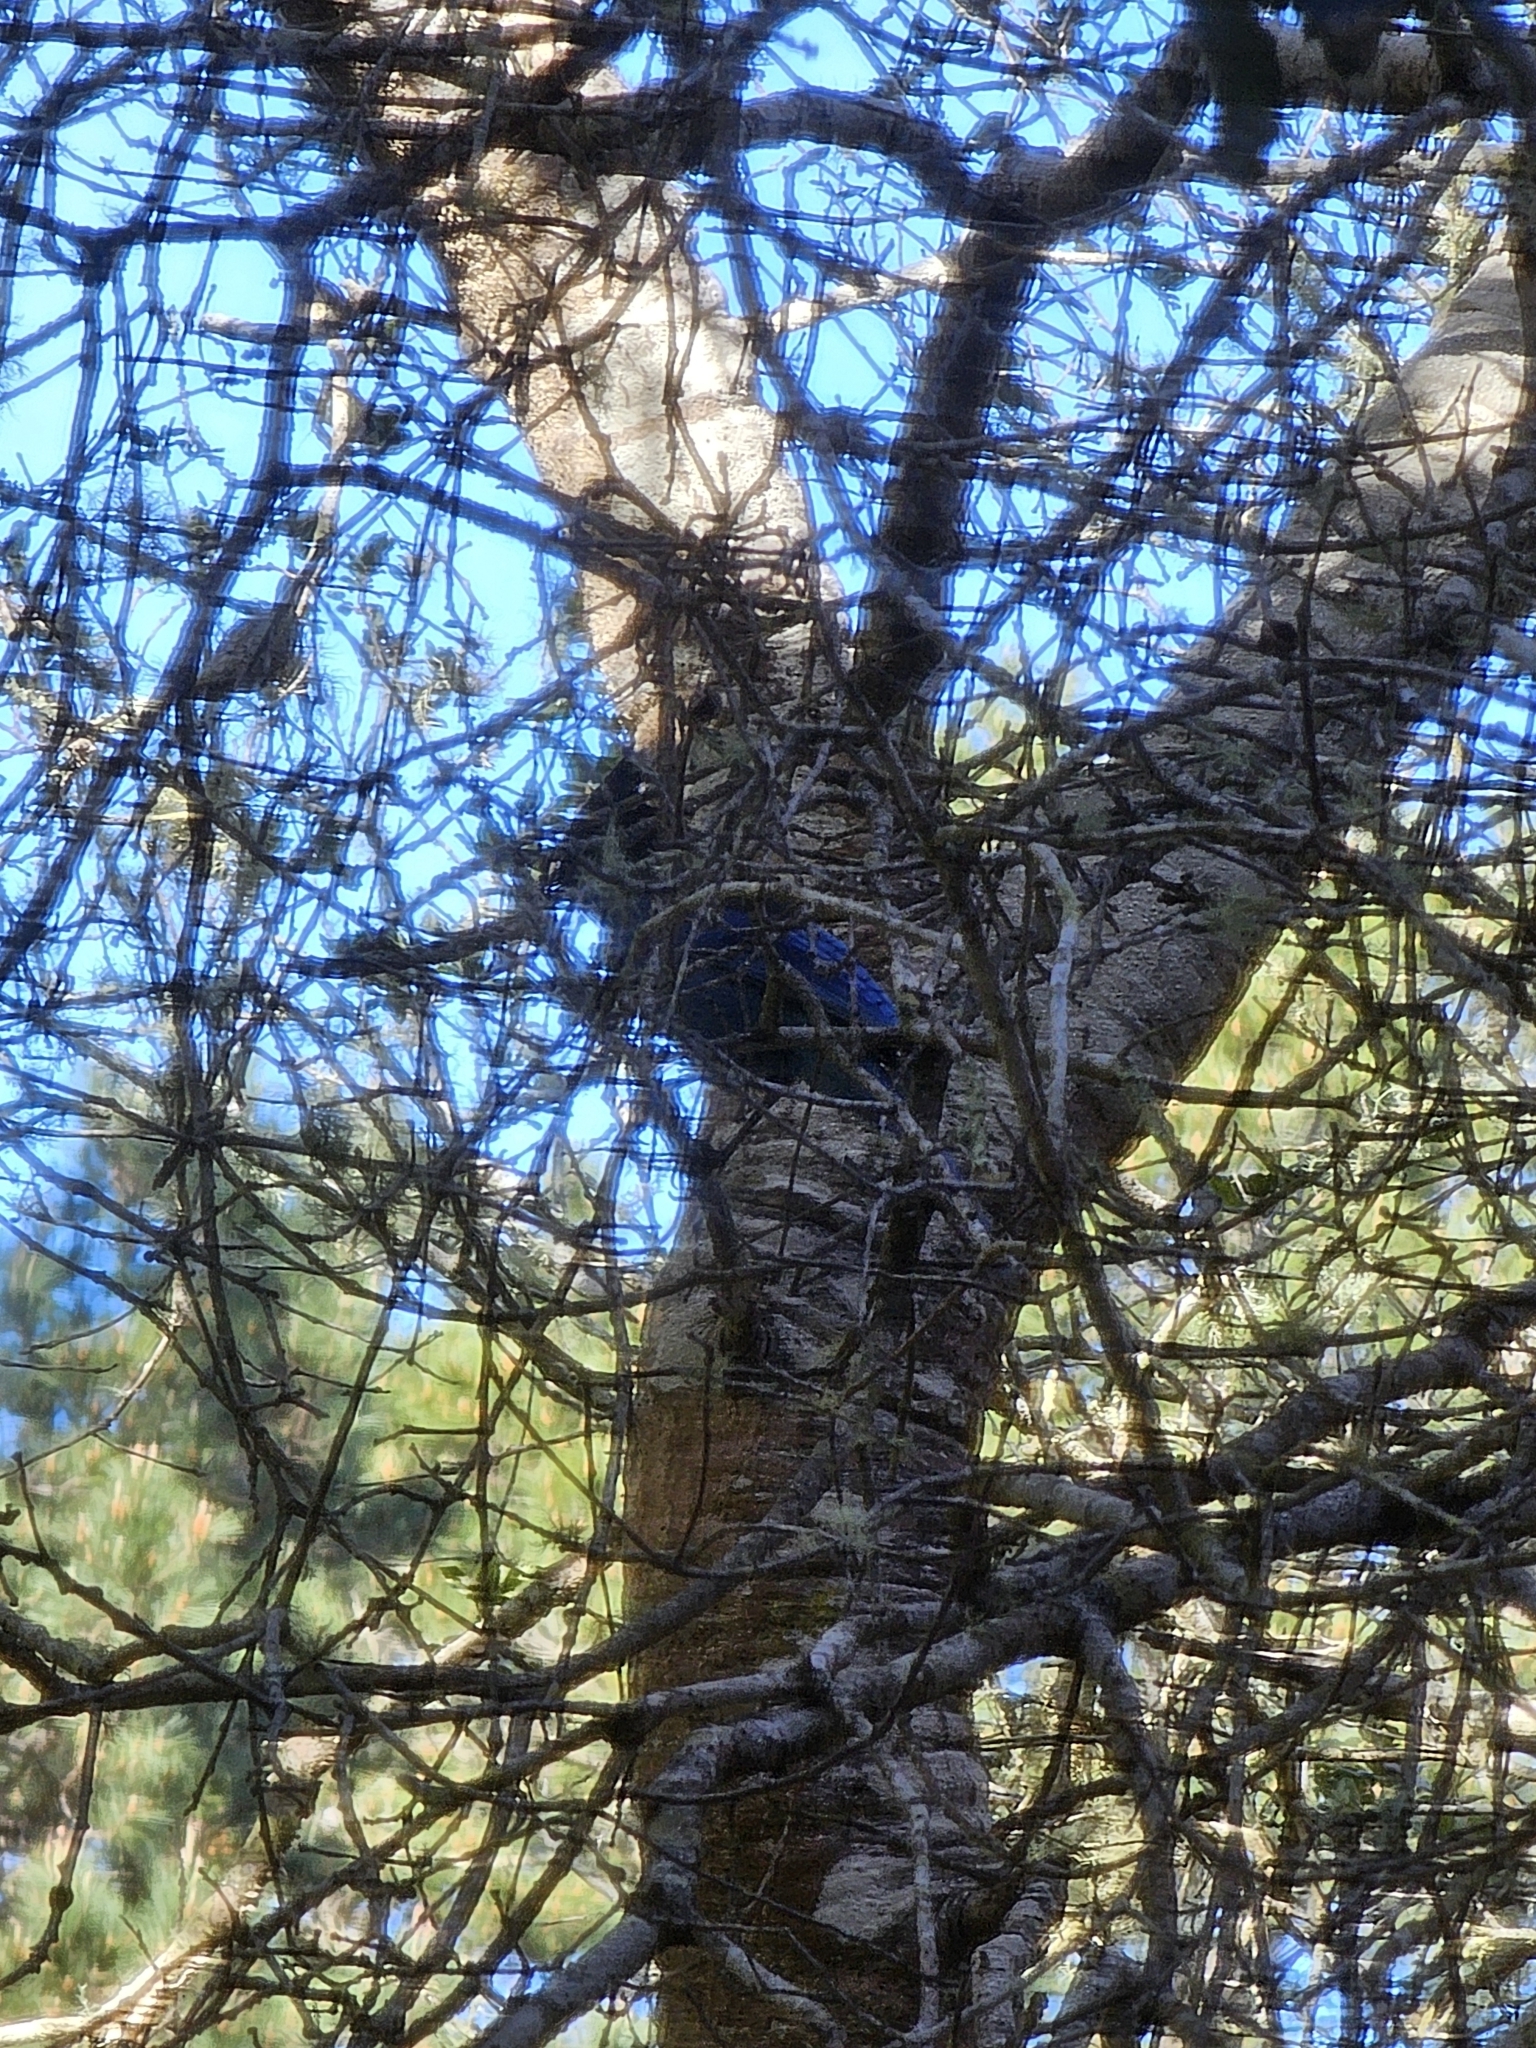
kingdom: Animalia
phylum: Chordata
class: Aves
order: Passeriformes
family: Corvidae
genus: Cyanocitta
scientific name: Cyanocitta stelleri
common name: Steller's jay
